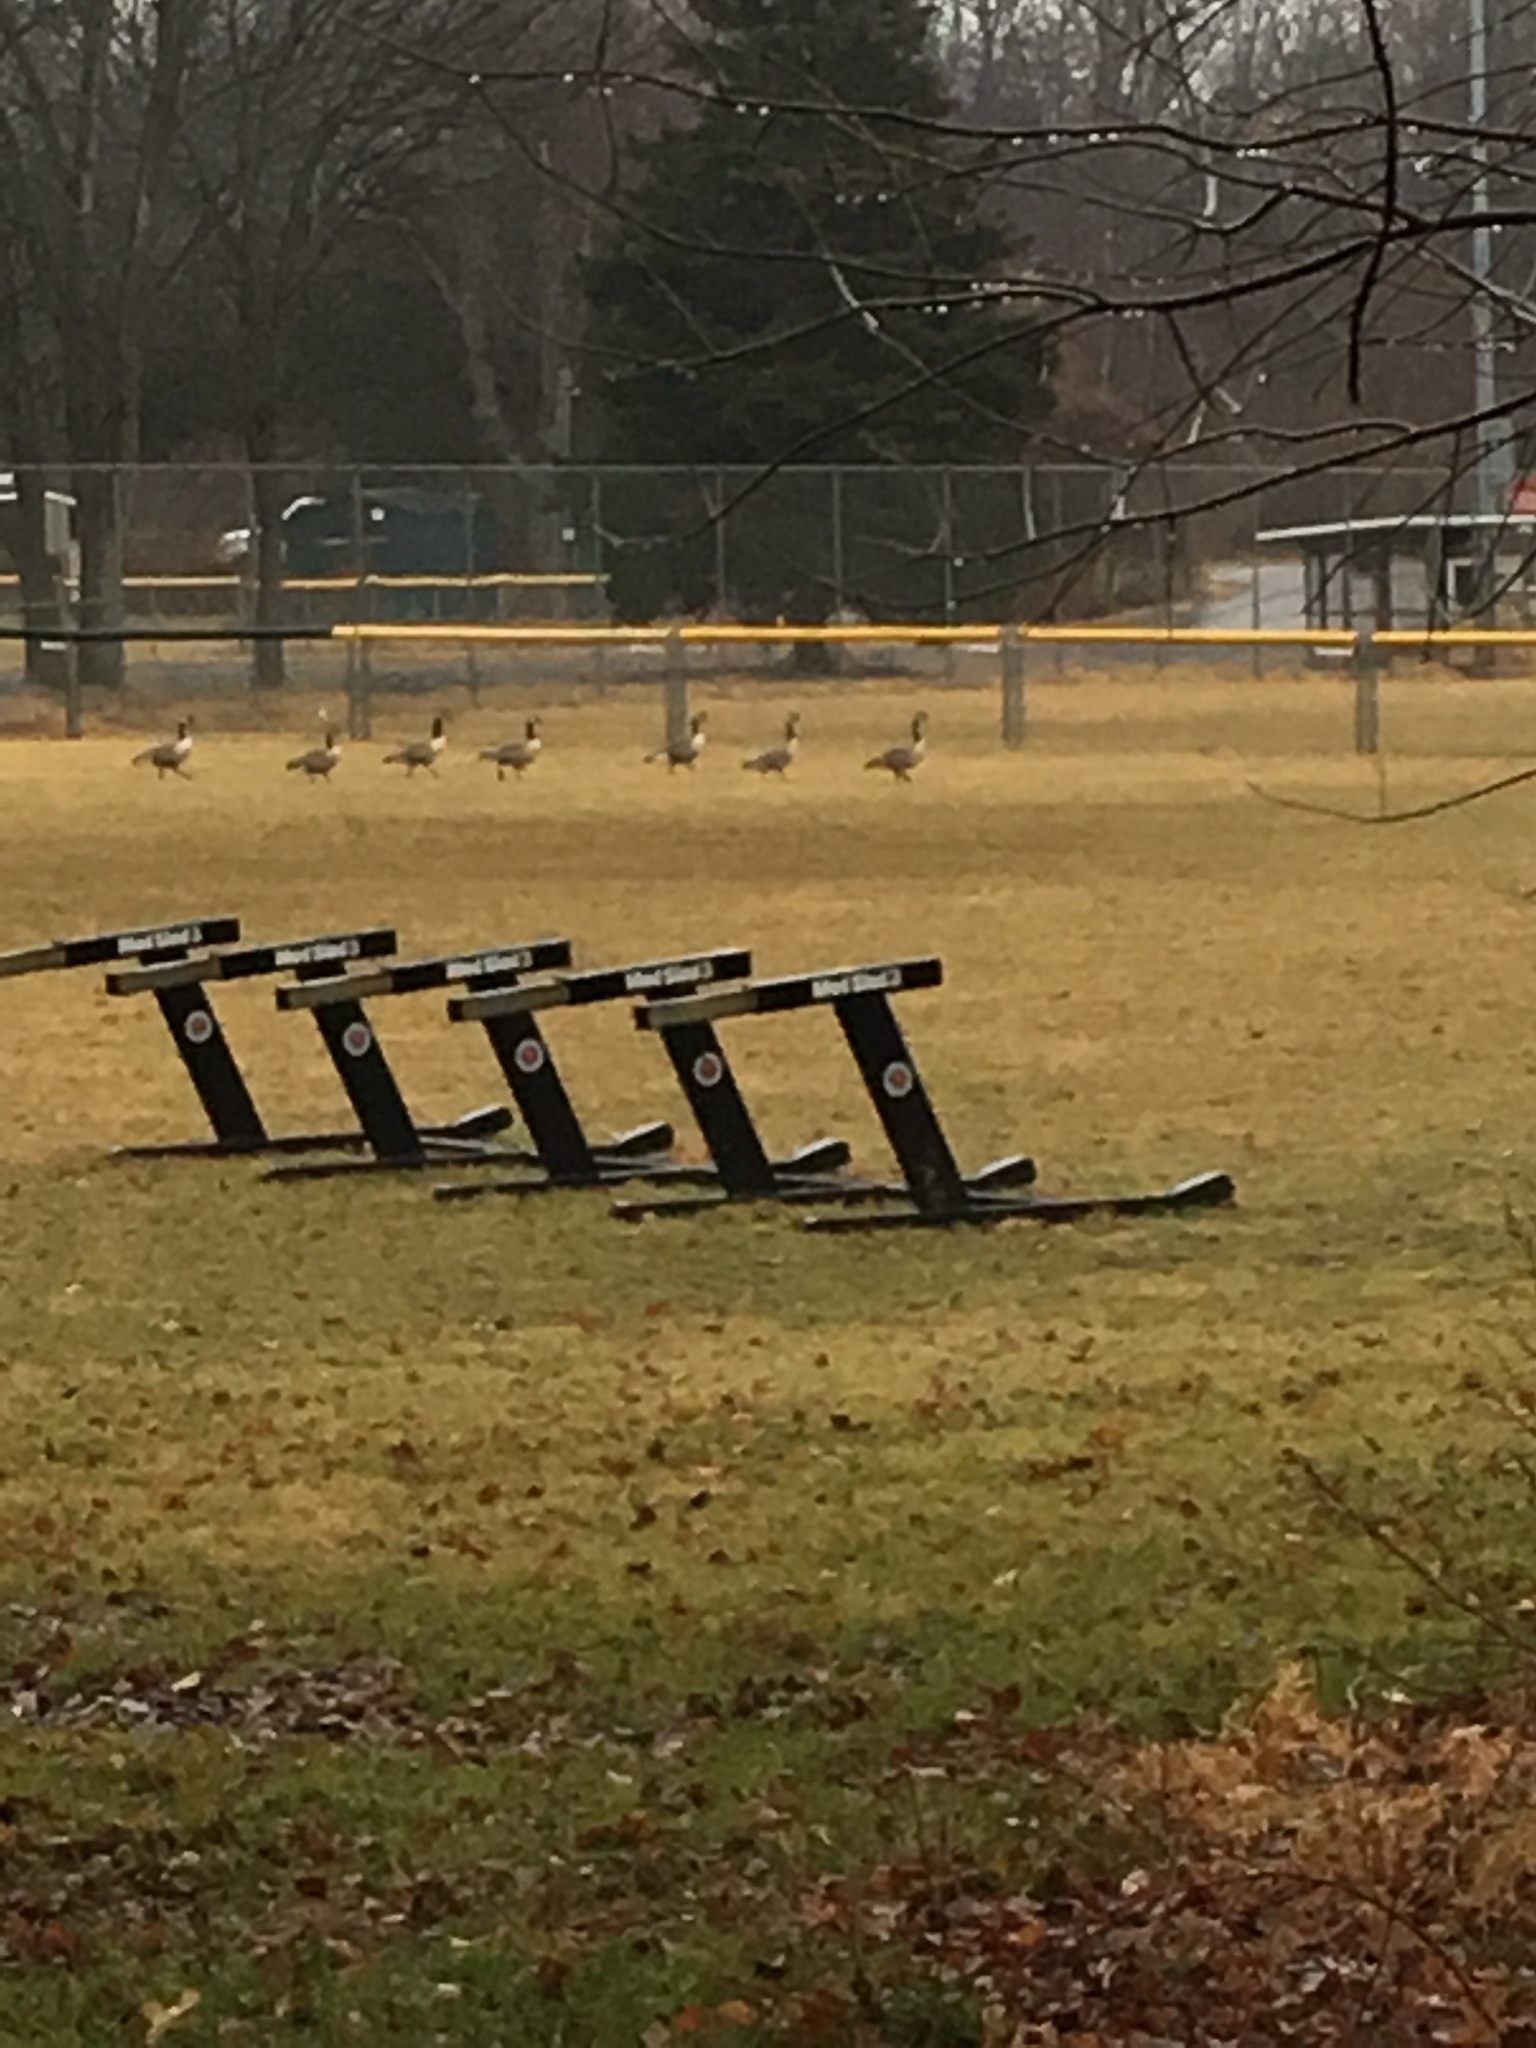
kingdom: Animalia
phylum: Chordata
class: Aves
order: Anseriformes
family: Anatidae
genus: Branta
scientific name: Branta canadensis
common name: Canada goose
